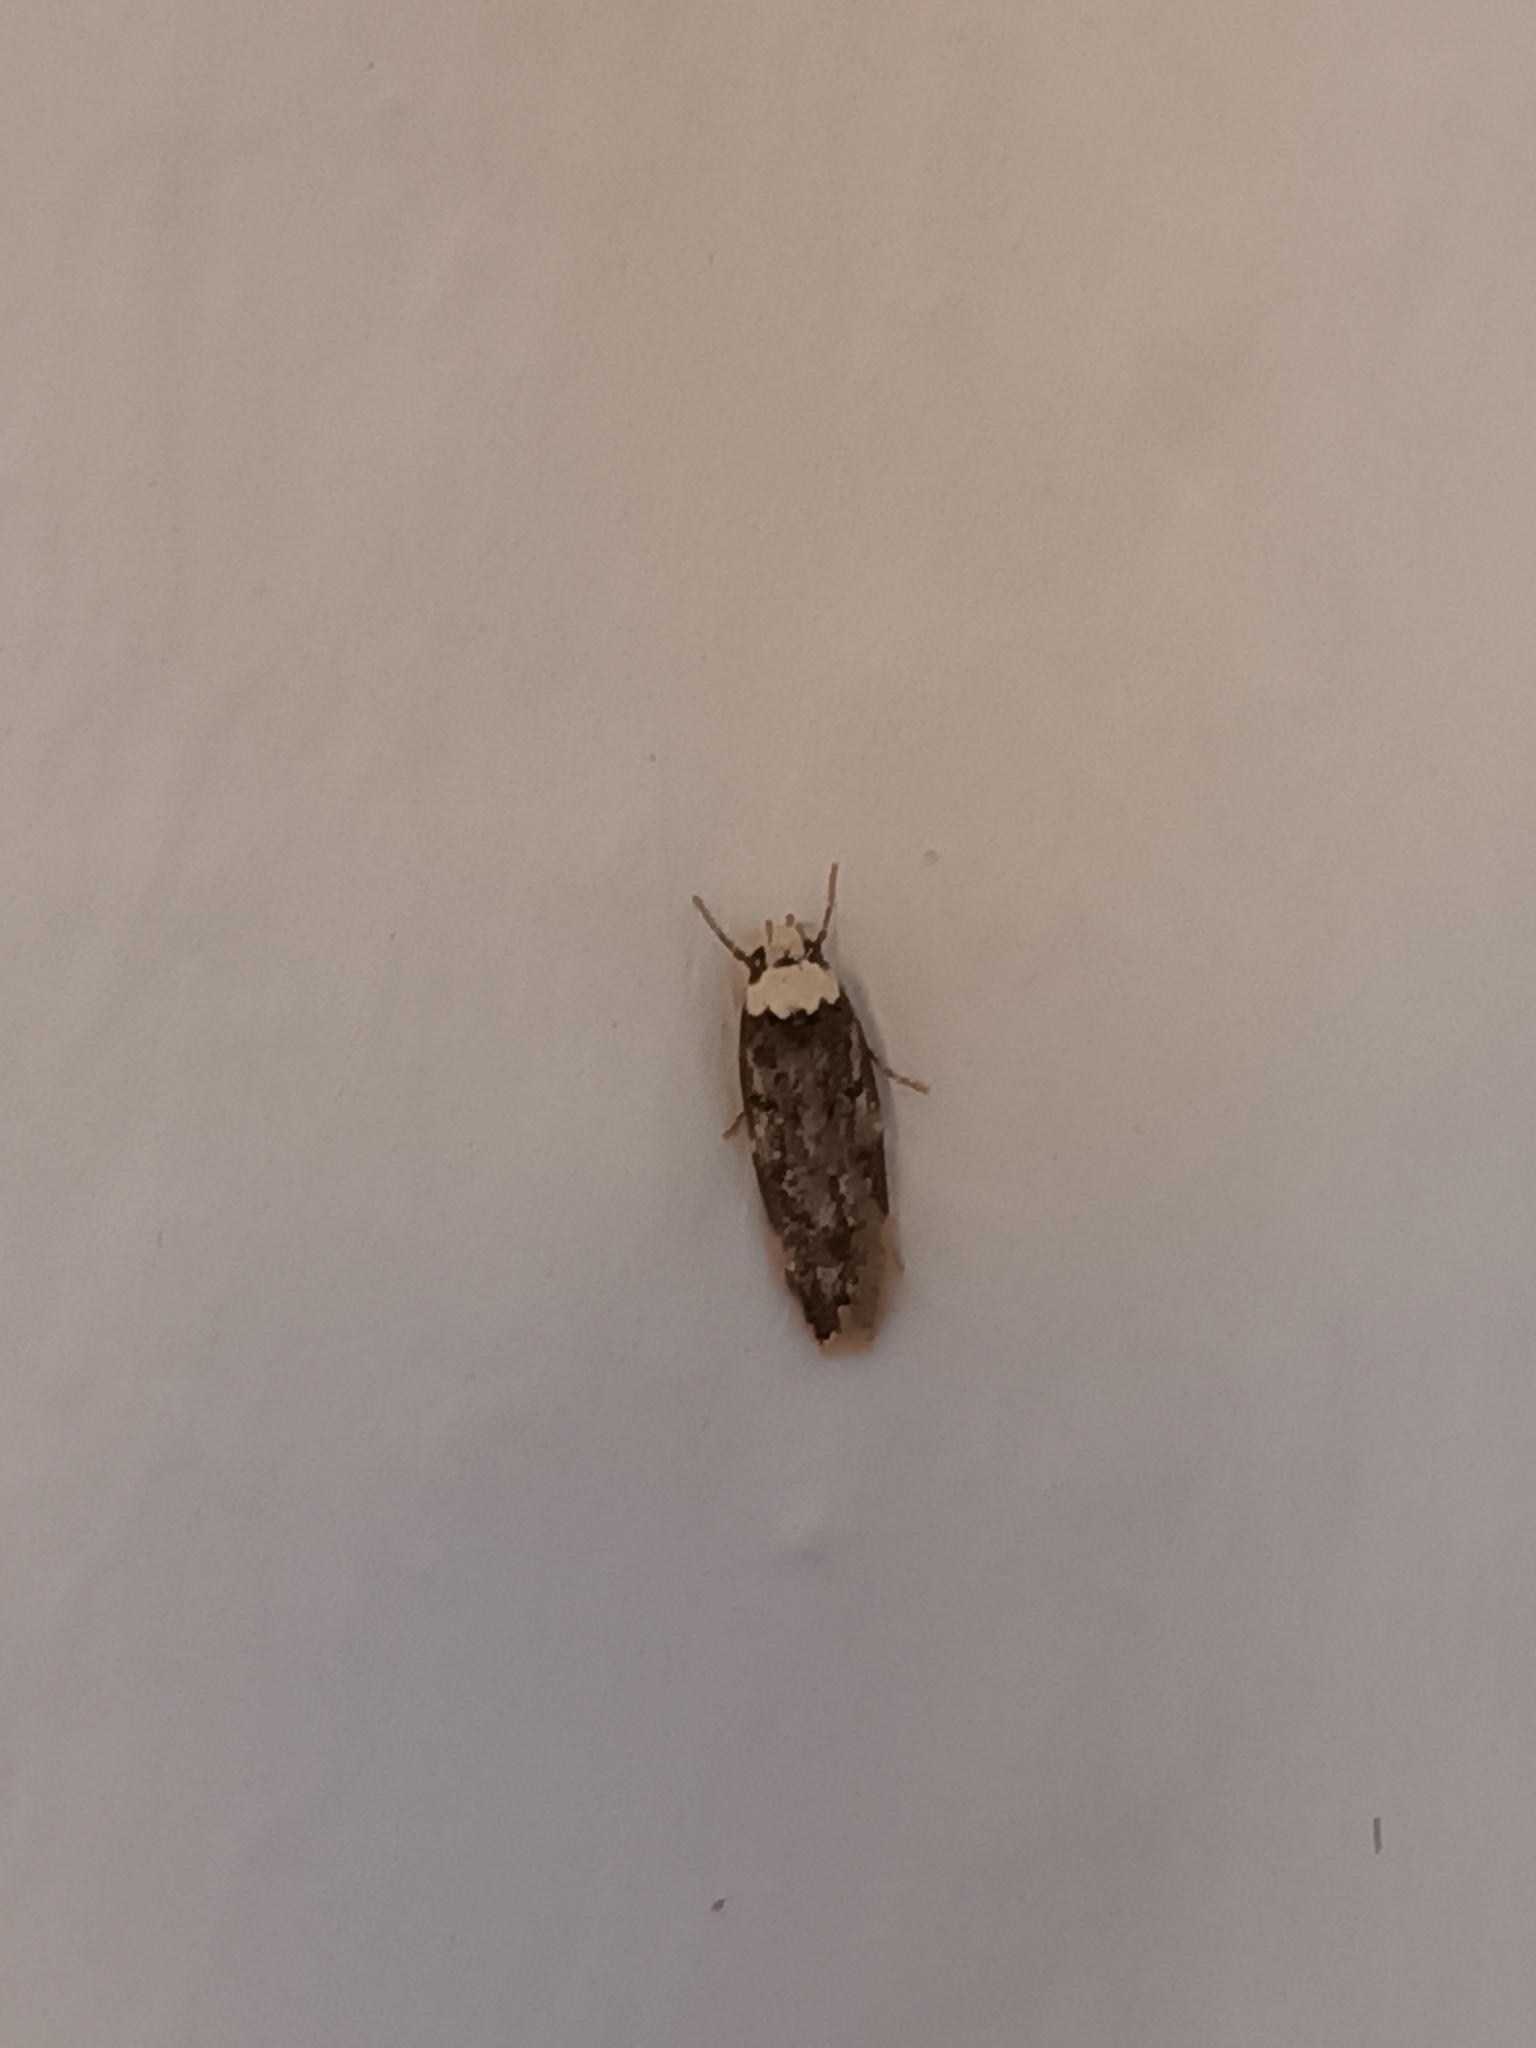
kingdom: Animalia
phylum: Arthropoda
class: Insecta
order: Lepidoptera
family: Oecophoridae
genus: Endrosis
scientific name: Endrosis sarcitrella
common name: White-shouldered house moth
